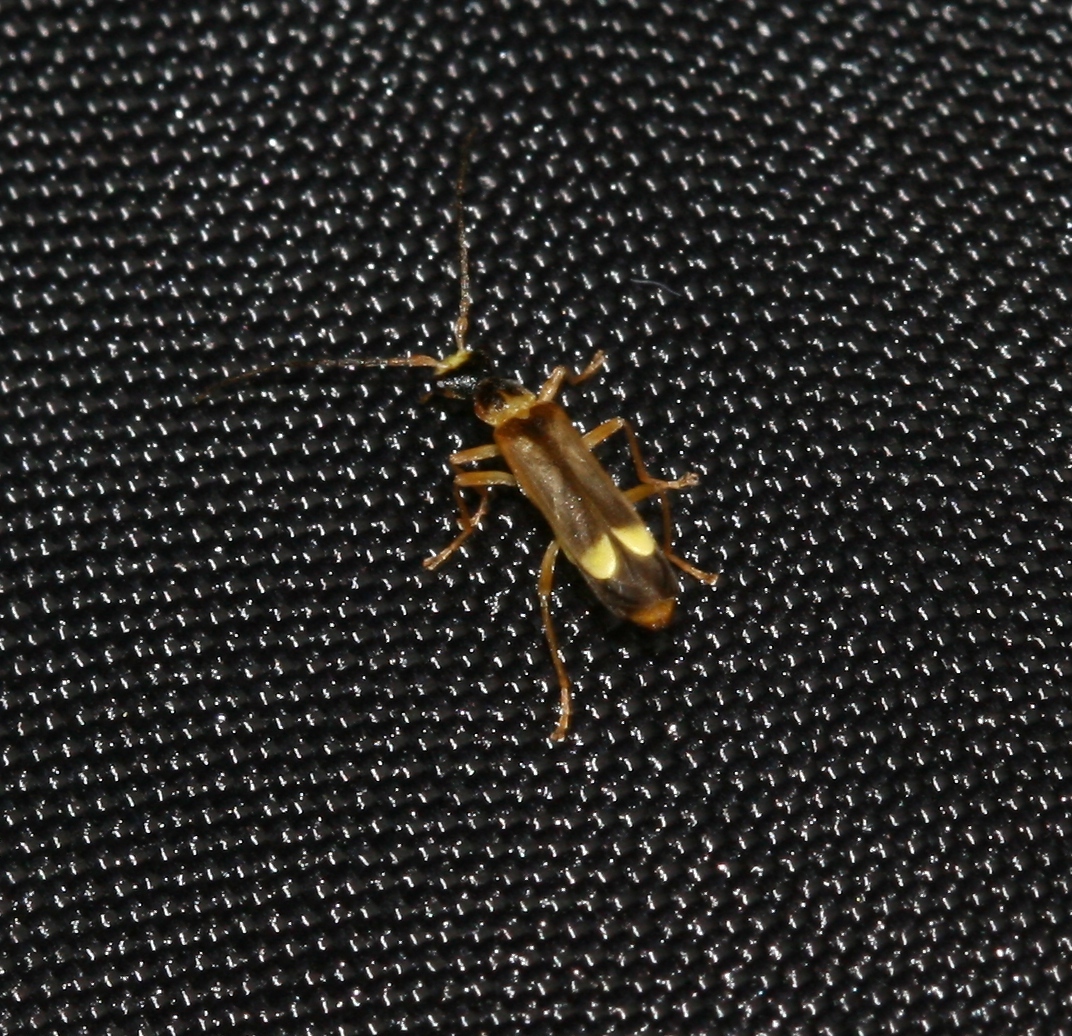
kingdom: Animalia
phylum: Arthropoda
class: Insecta
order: Coleoptera
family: Cantharidae
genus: Malthinus
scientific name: Malthinus flaveolus
